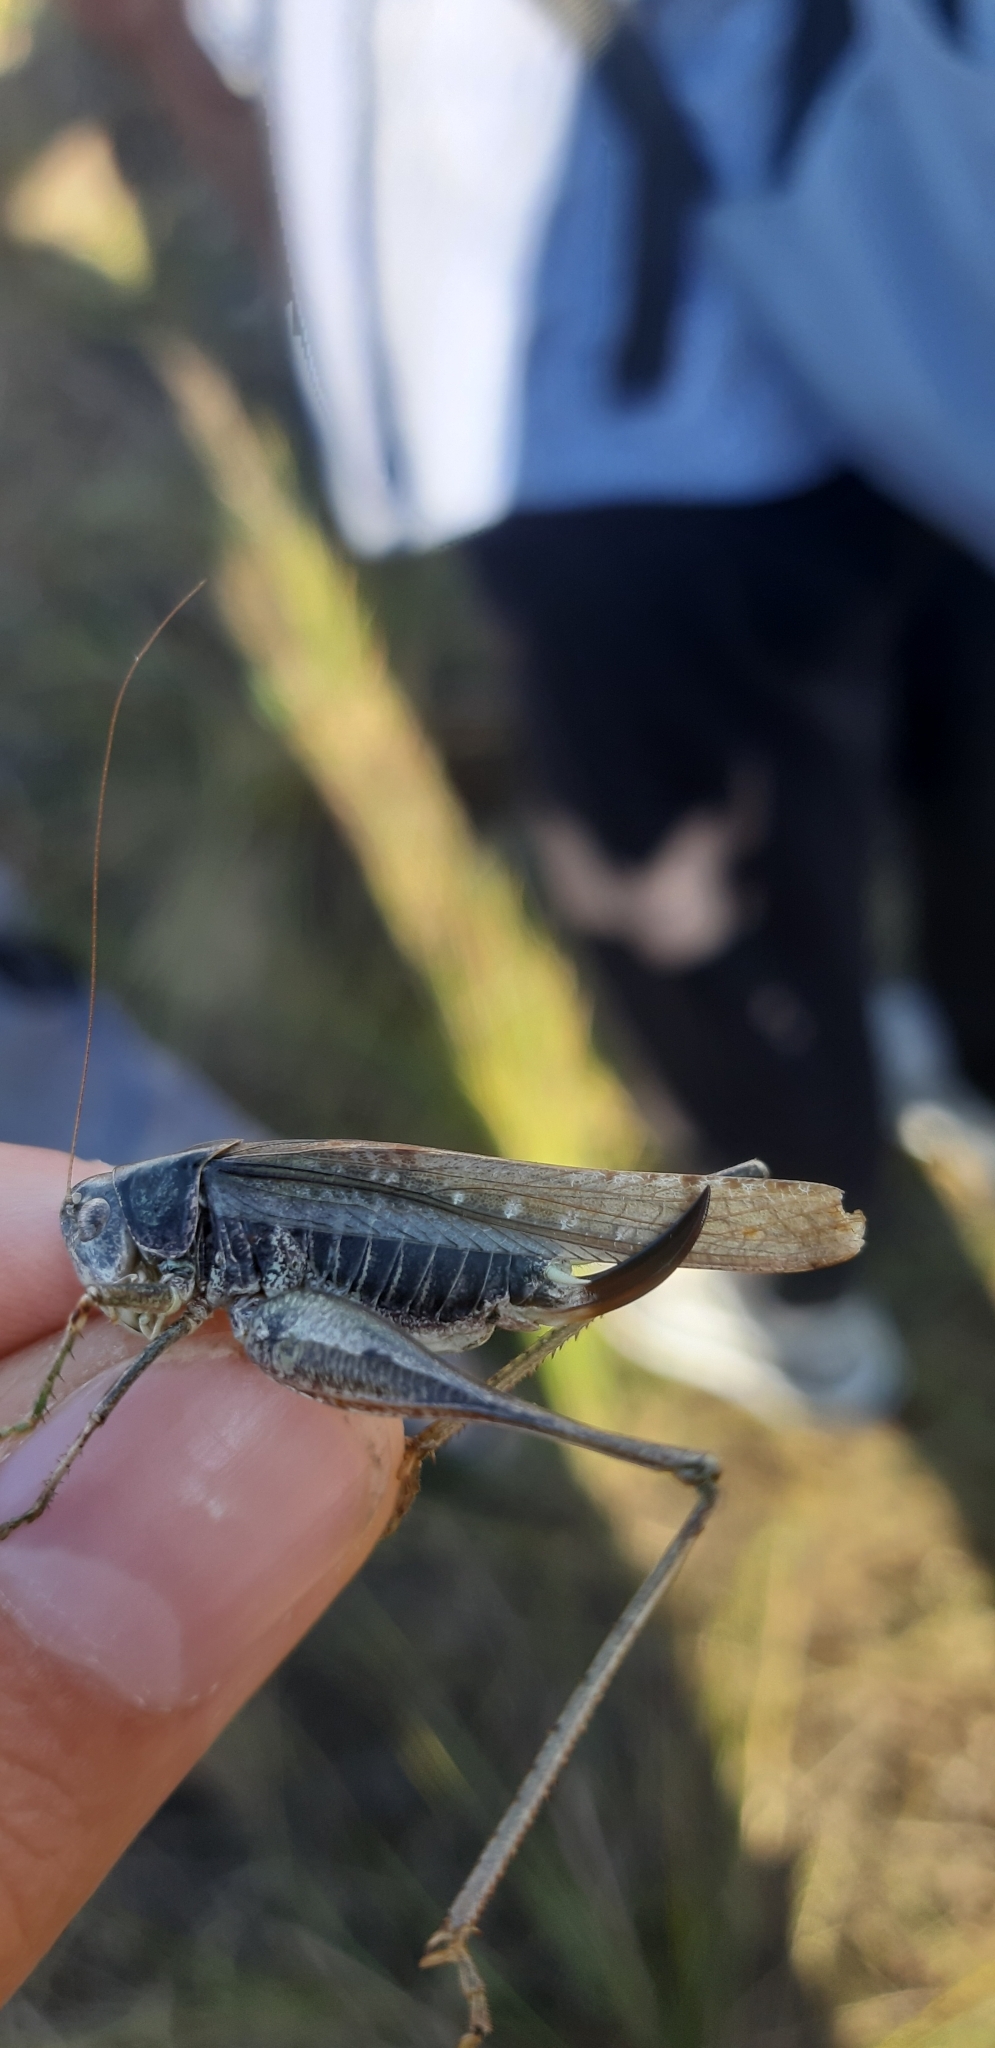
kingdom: Animalia
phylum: Arthropoda
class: Insecta
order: Orthoptera
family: Tettigoniidae
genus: Platycleis
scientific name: Platycleis grisea
